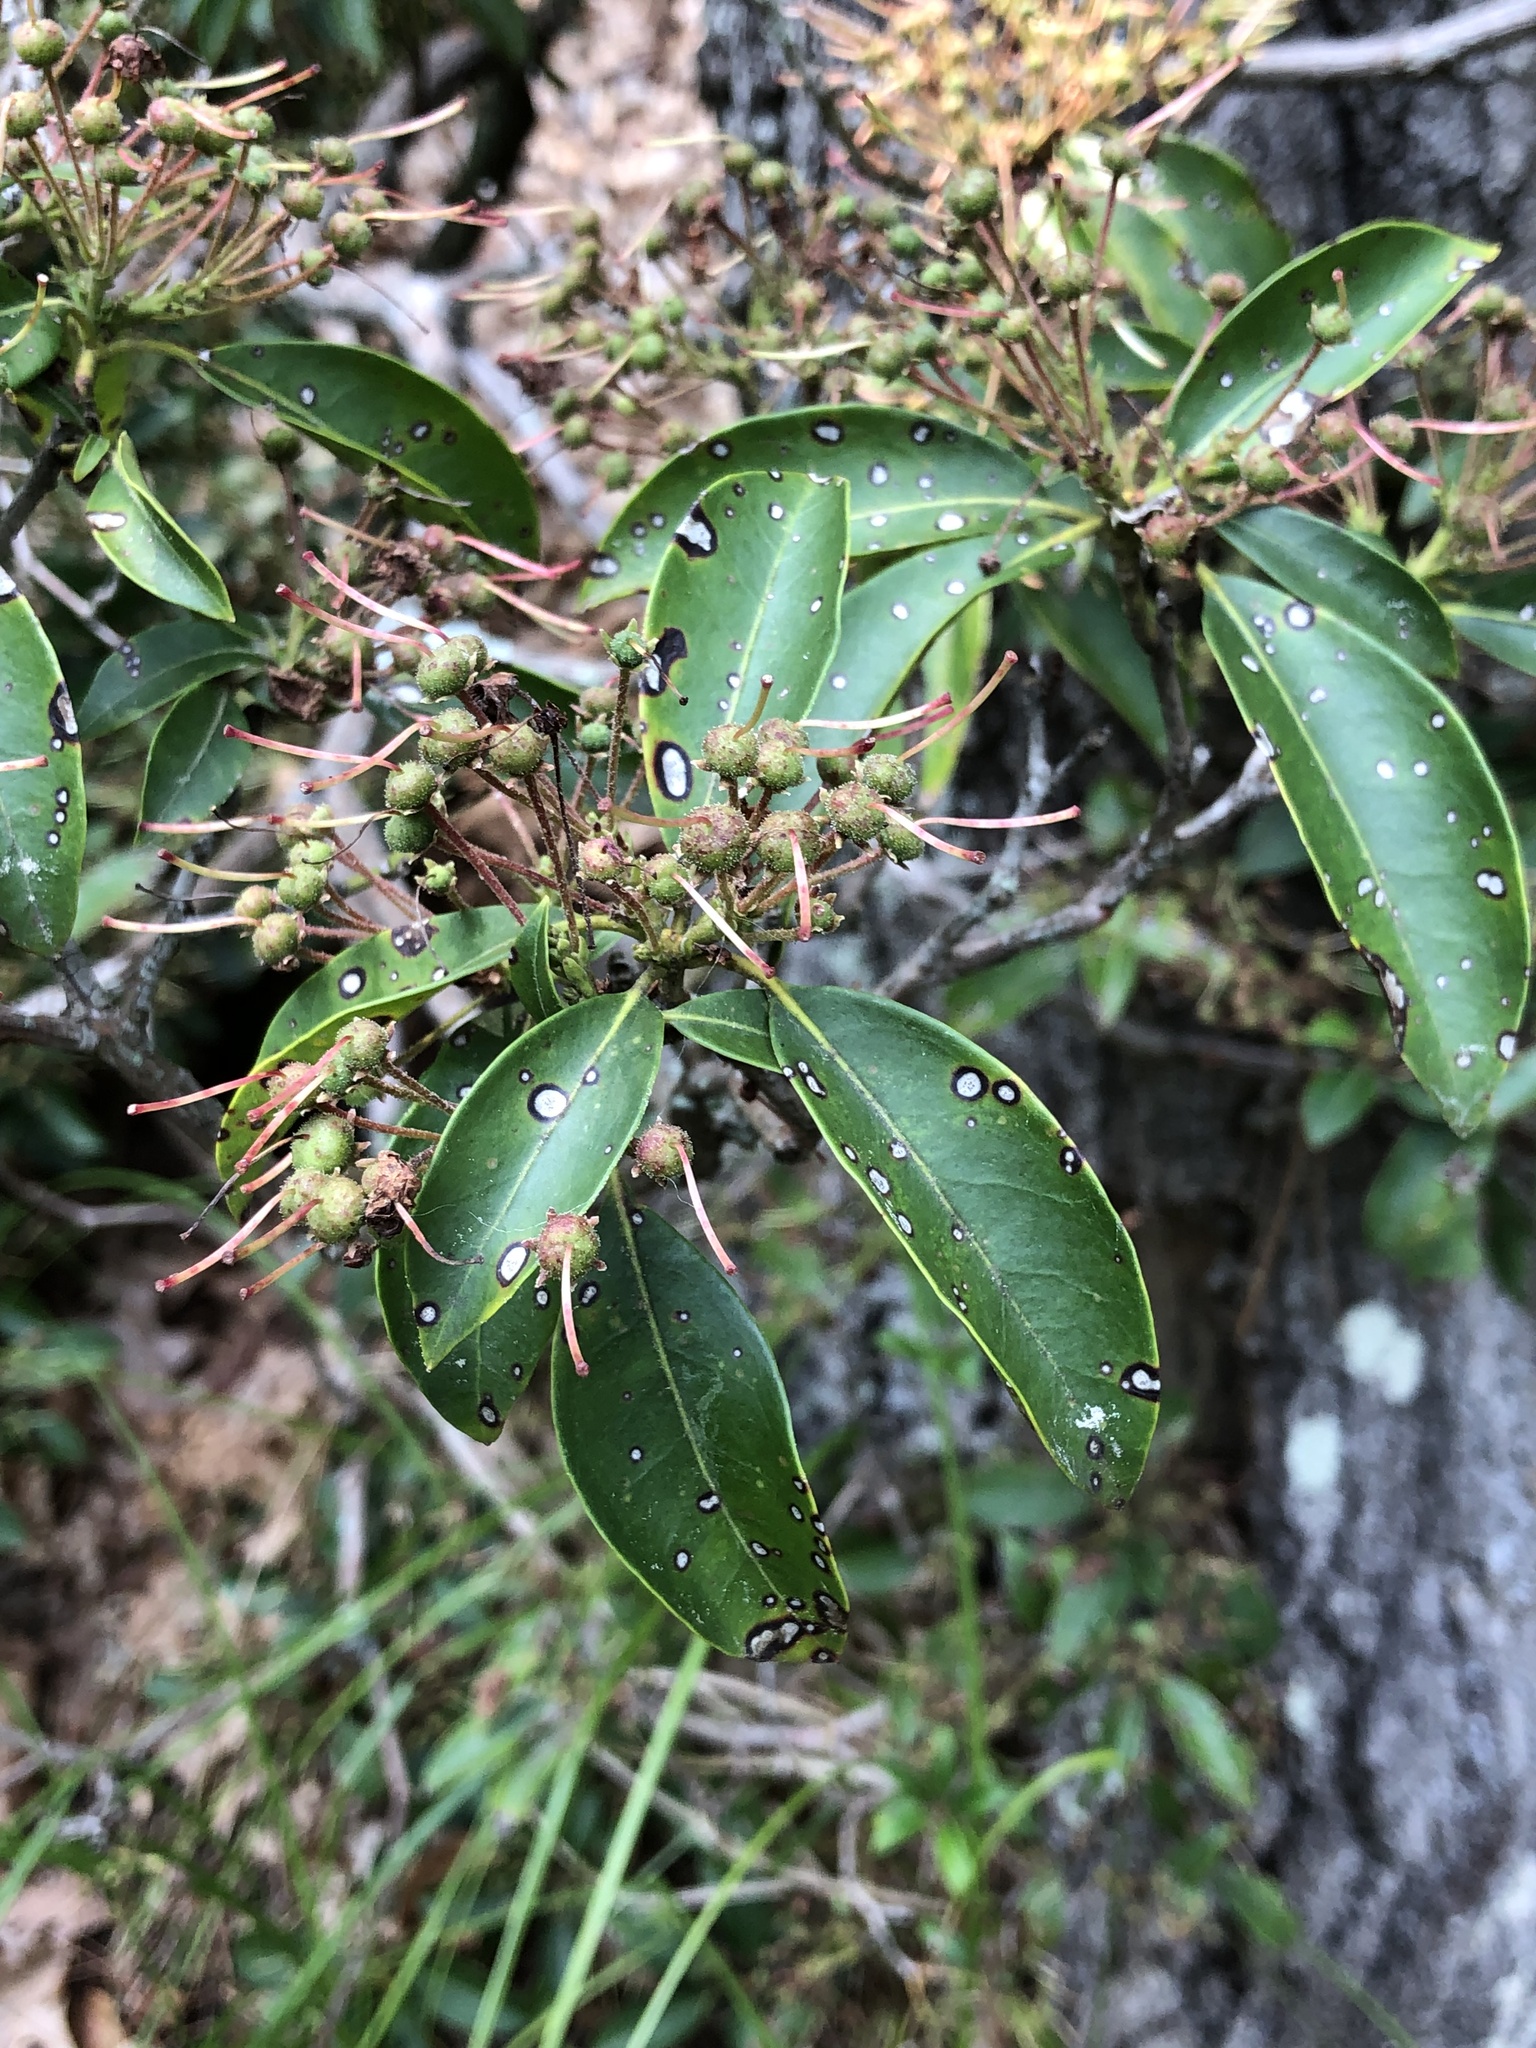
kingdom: Plantae
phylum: Tracheophyta
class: Magnoliopsida
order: Ericales
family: Ericaceae
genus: Kalmia
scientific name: Kalmia latifolia
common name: Mountain-laurel
